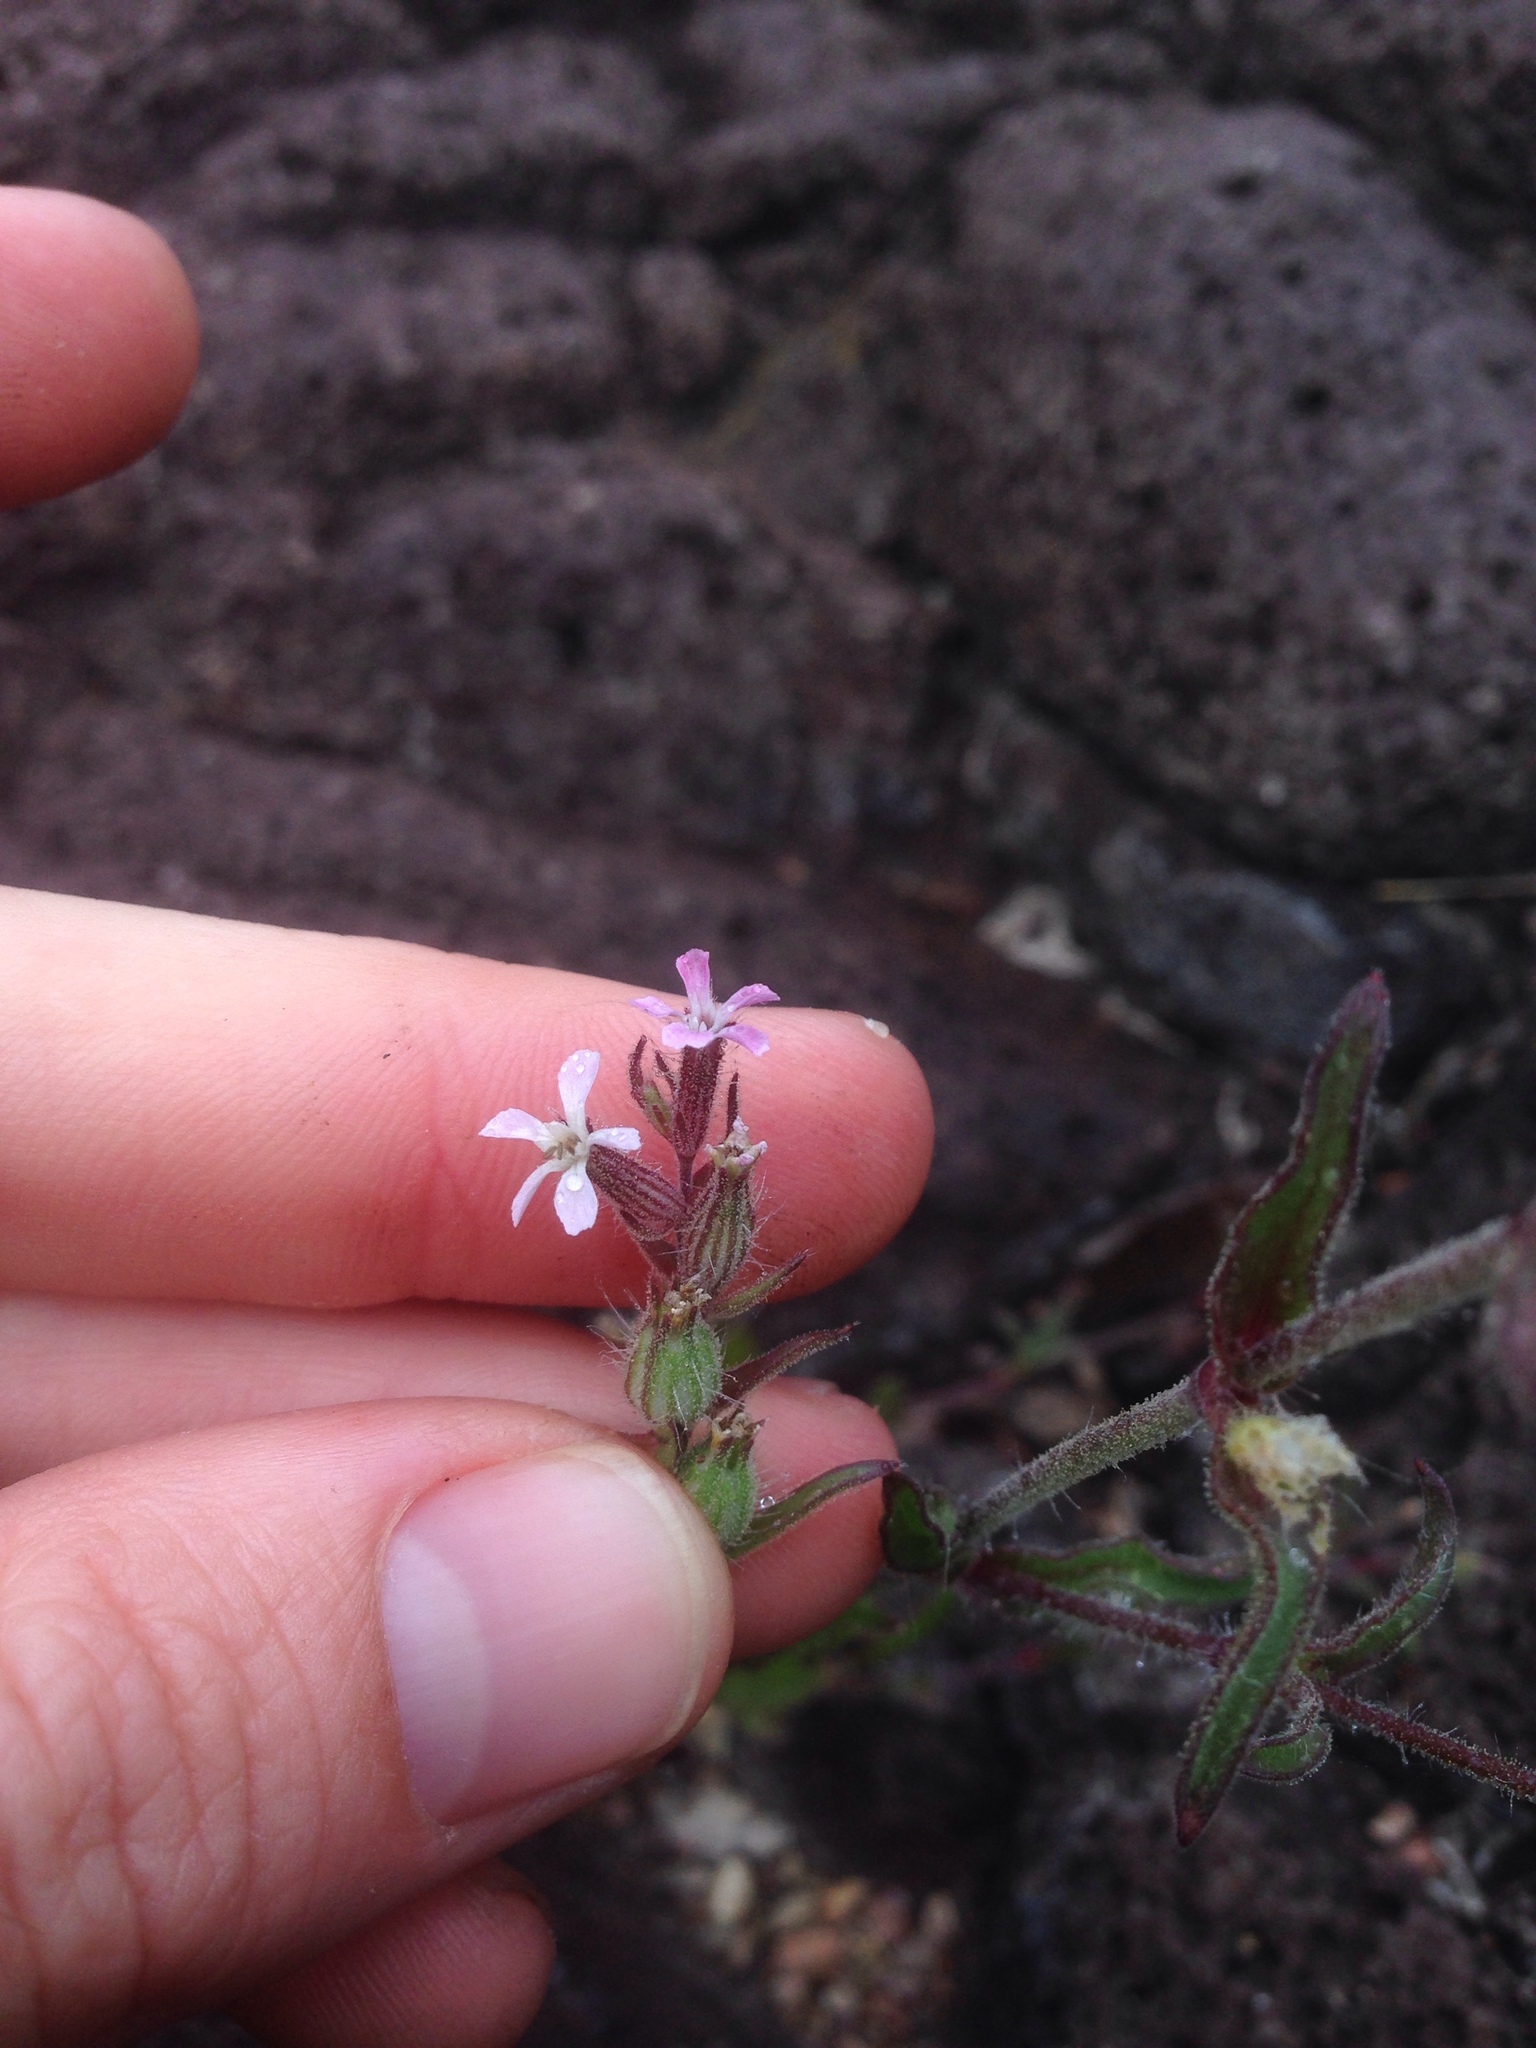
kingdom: Plantae
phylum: Tracheophyta
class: Magnoliopsida
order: Caryophyllales
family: Caryophyllaceae
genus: Silene
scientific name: Silene gallica
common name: Small-flowered catchfly
